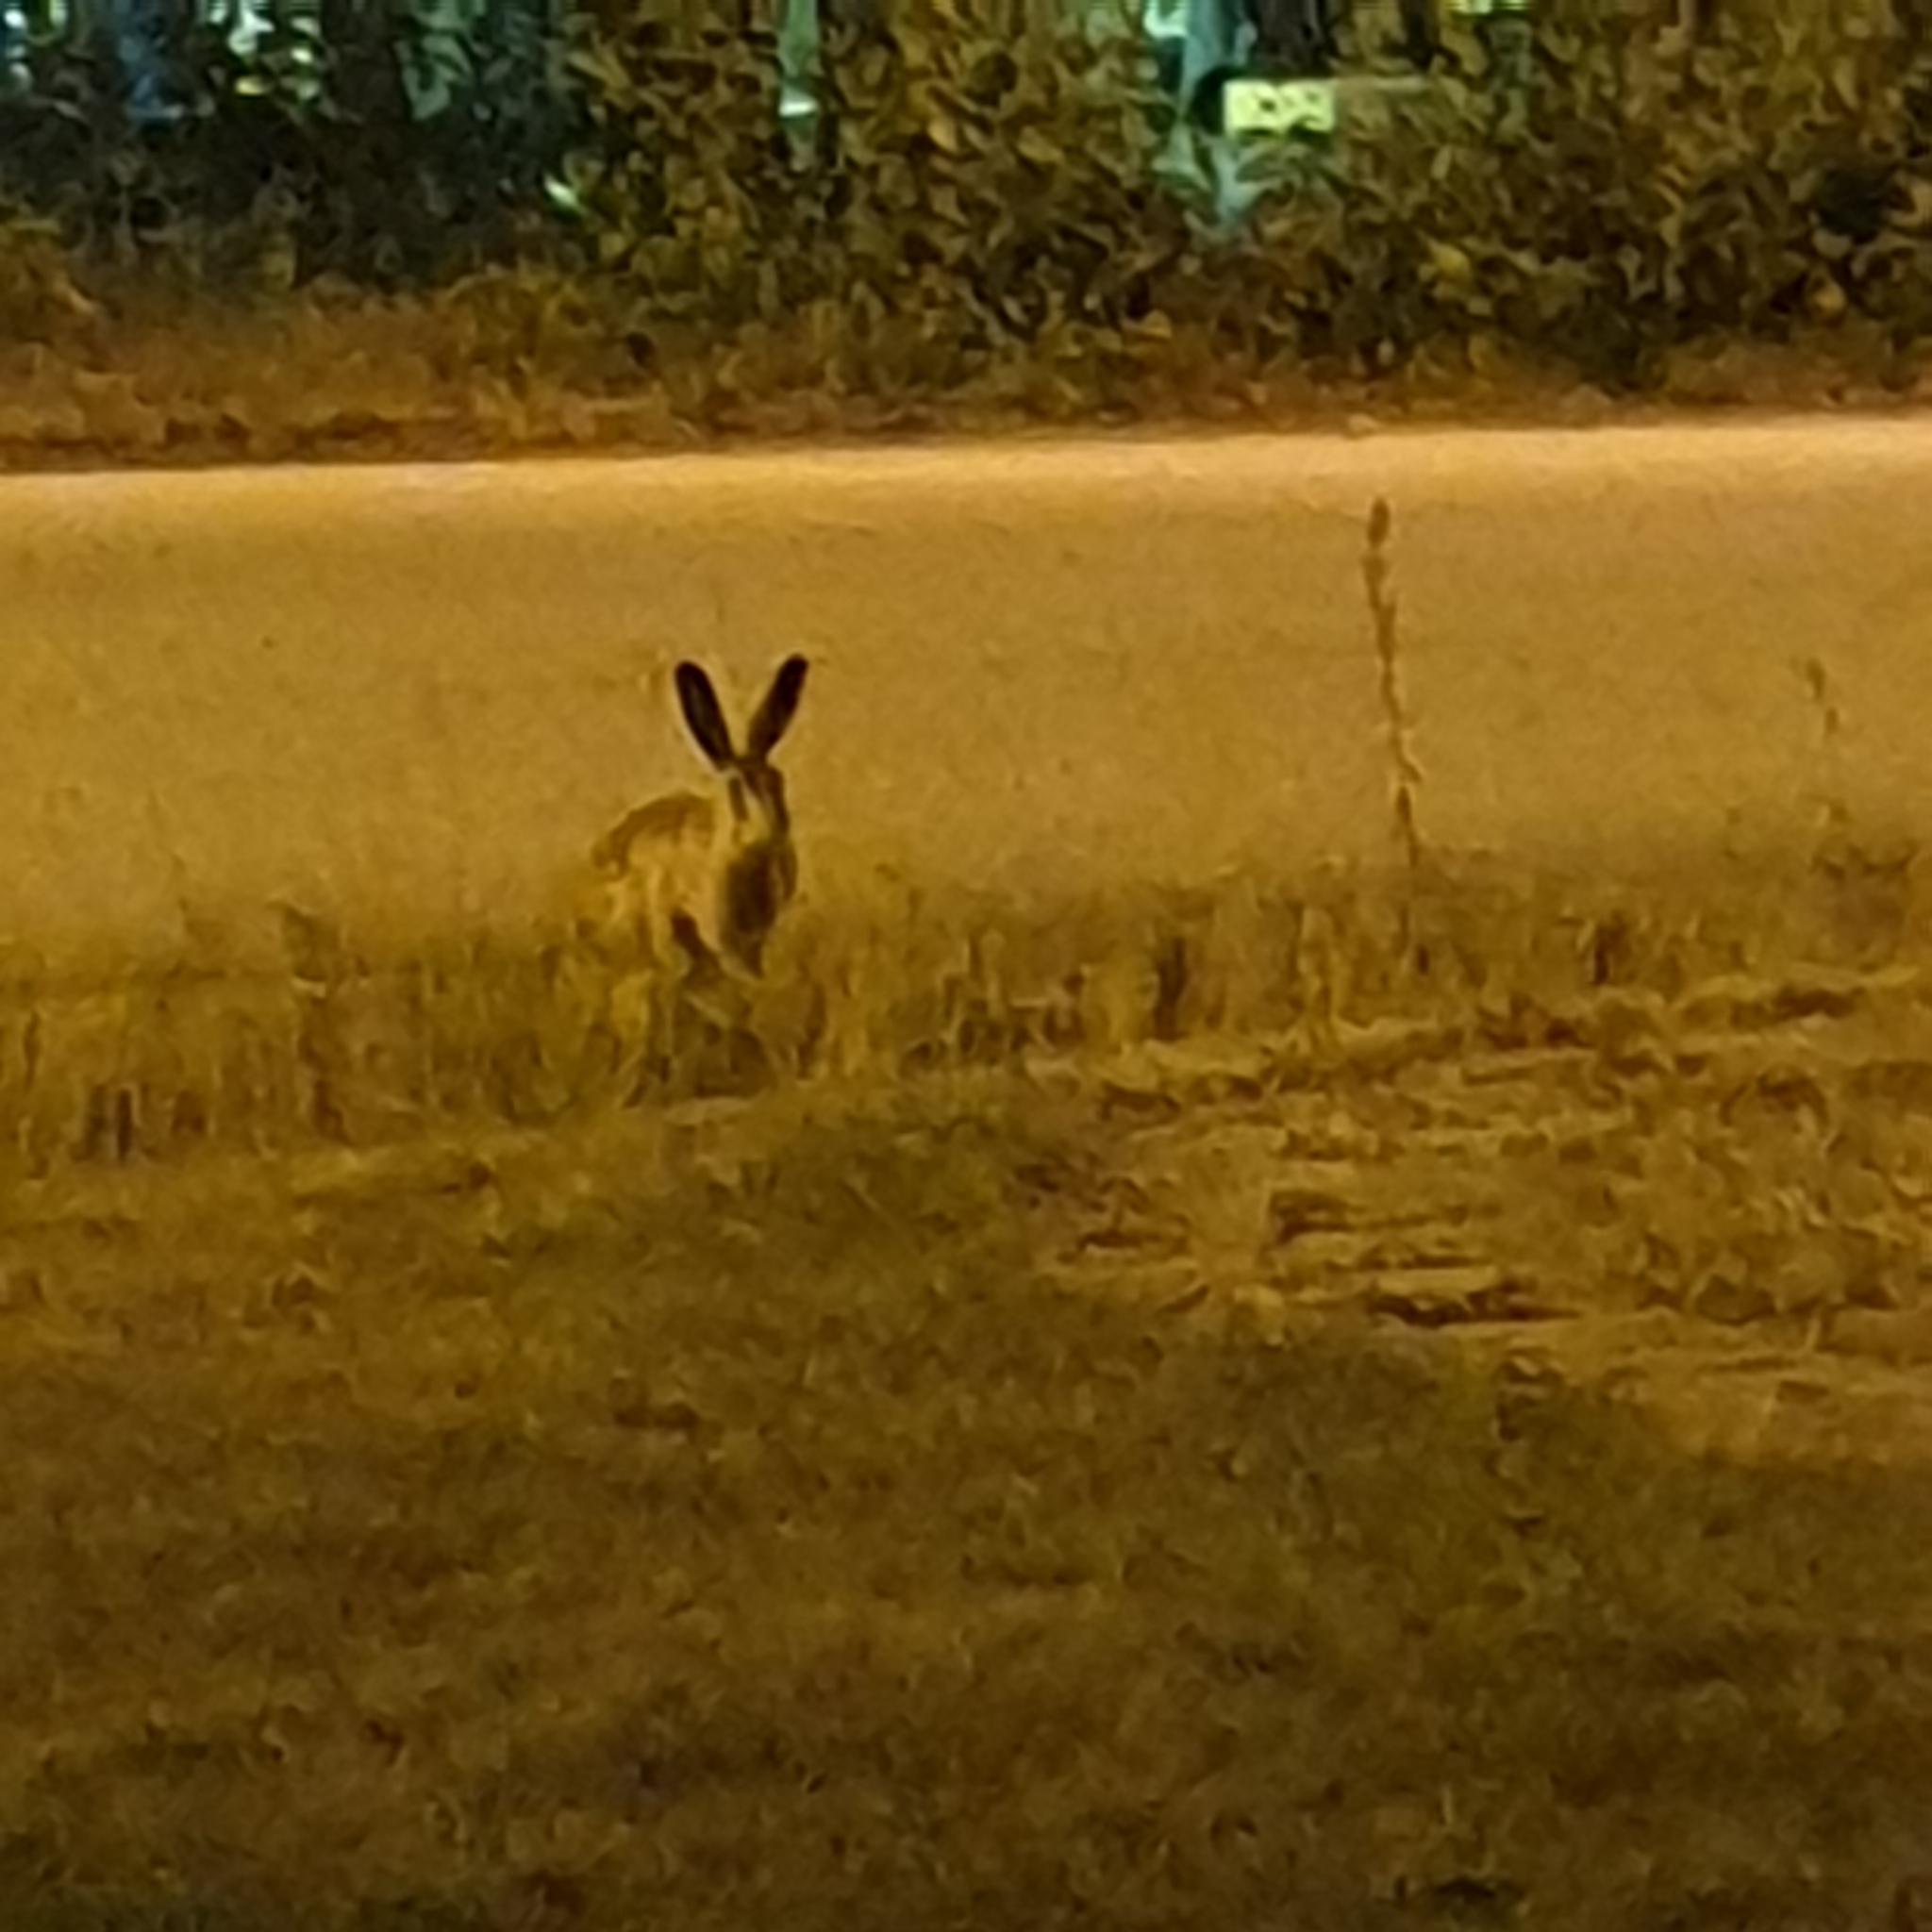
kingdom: Animalia
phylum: Chordata
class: Mammalia
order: Lagomorpha
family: Leporidae
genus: Lepus
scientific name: Lepus europaeus
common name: European hare
